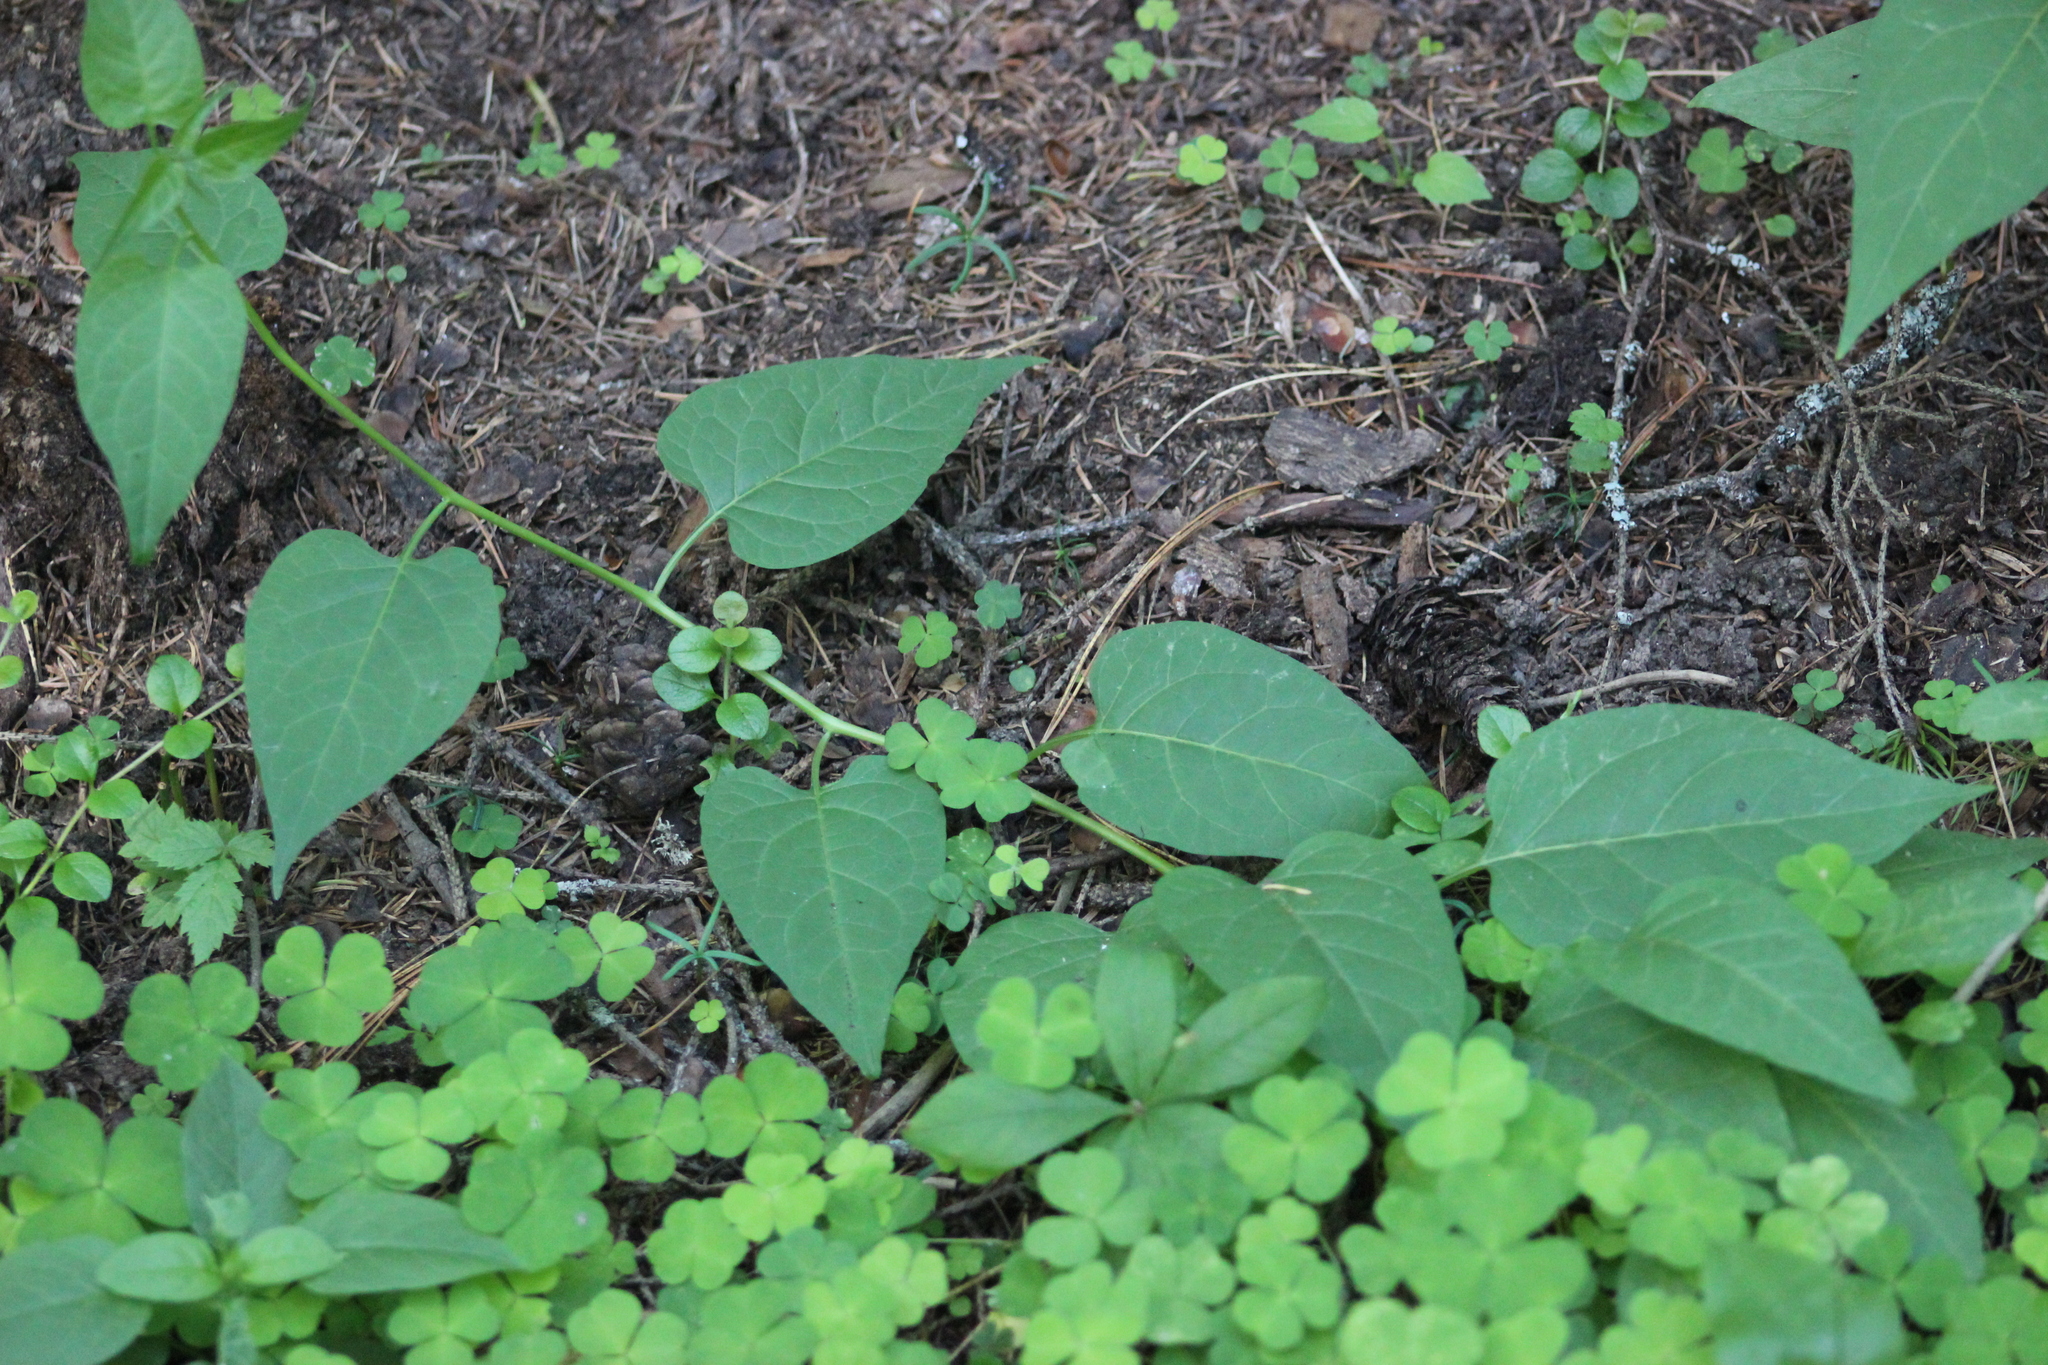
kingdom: Plantae
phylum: Tracheophyta
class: Magnoliopsida
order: Solanales
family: Solanaceae
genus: Solanum
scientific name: Solanum dulcamara
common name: Climbing nightshade
